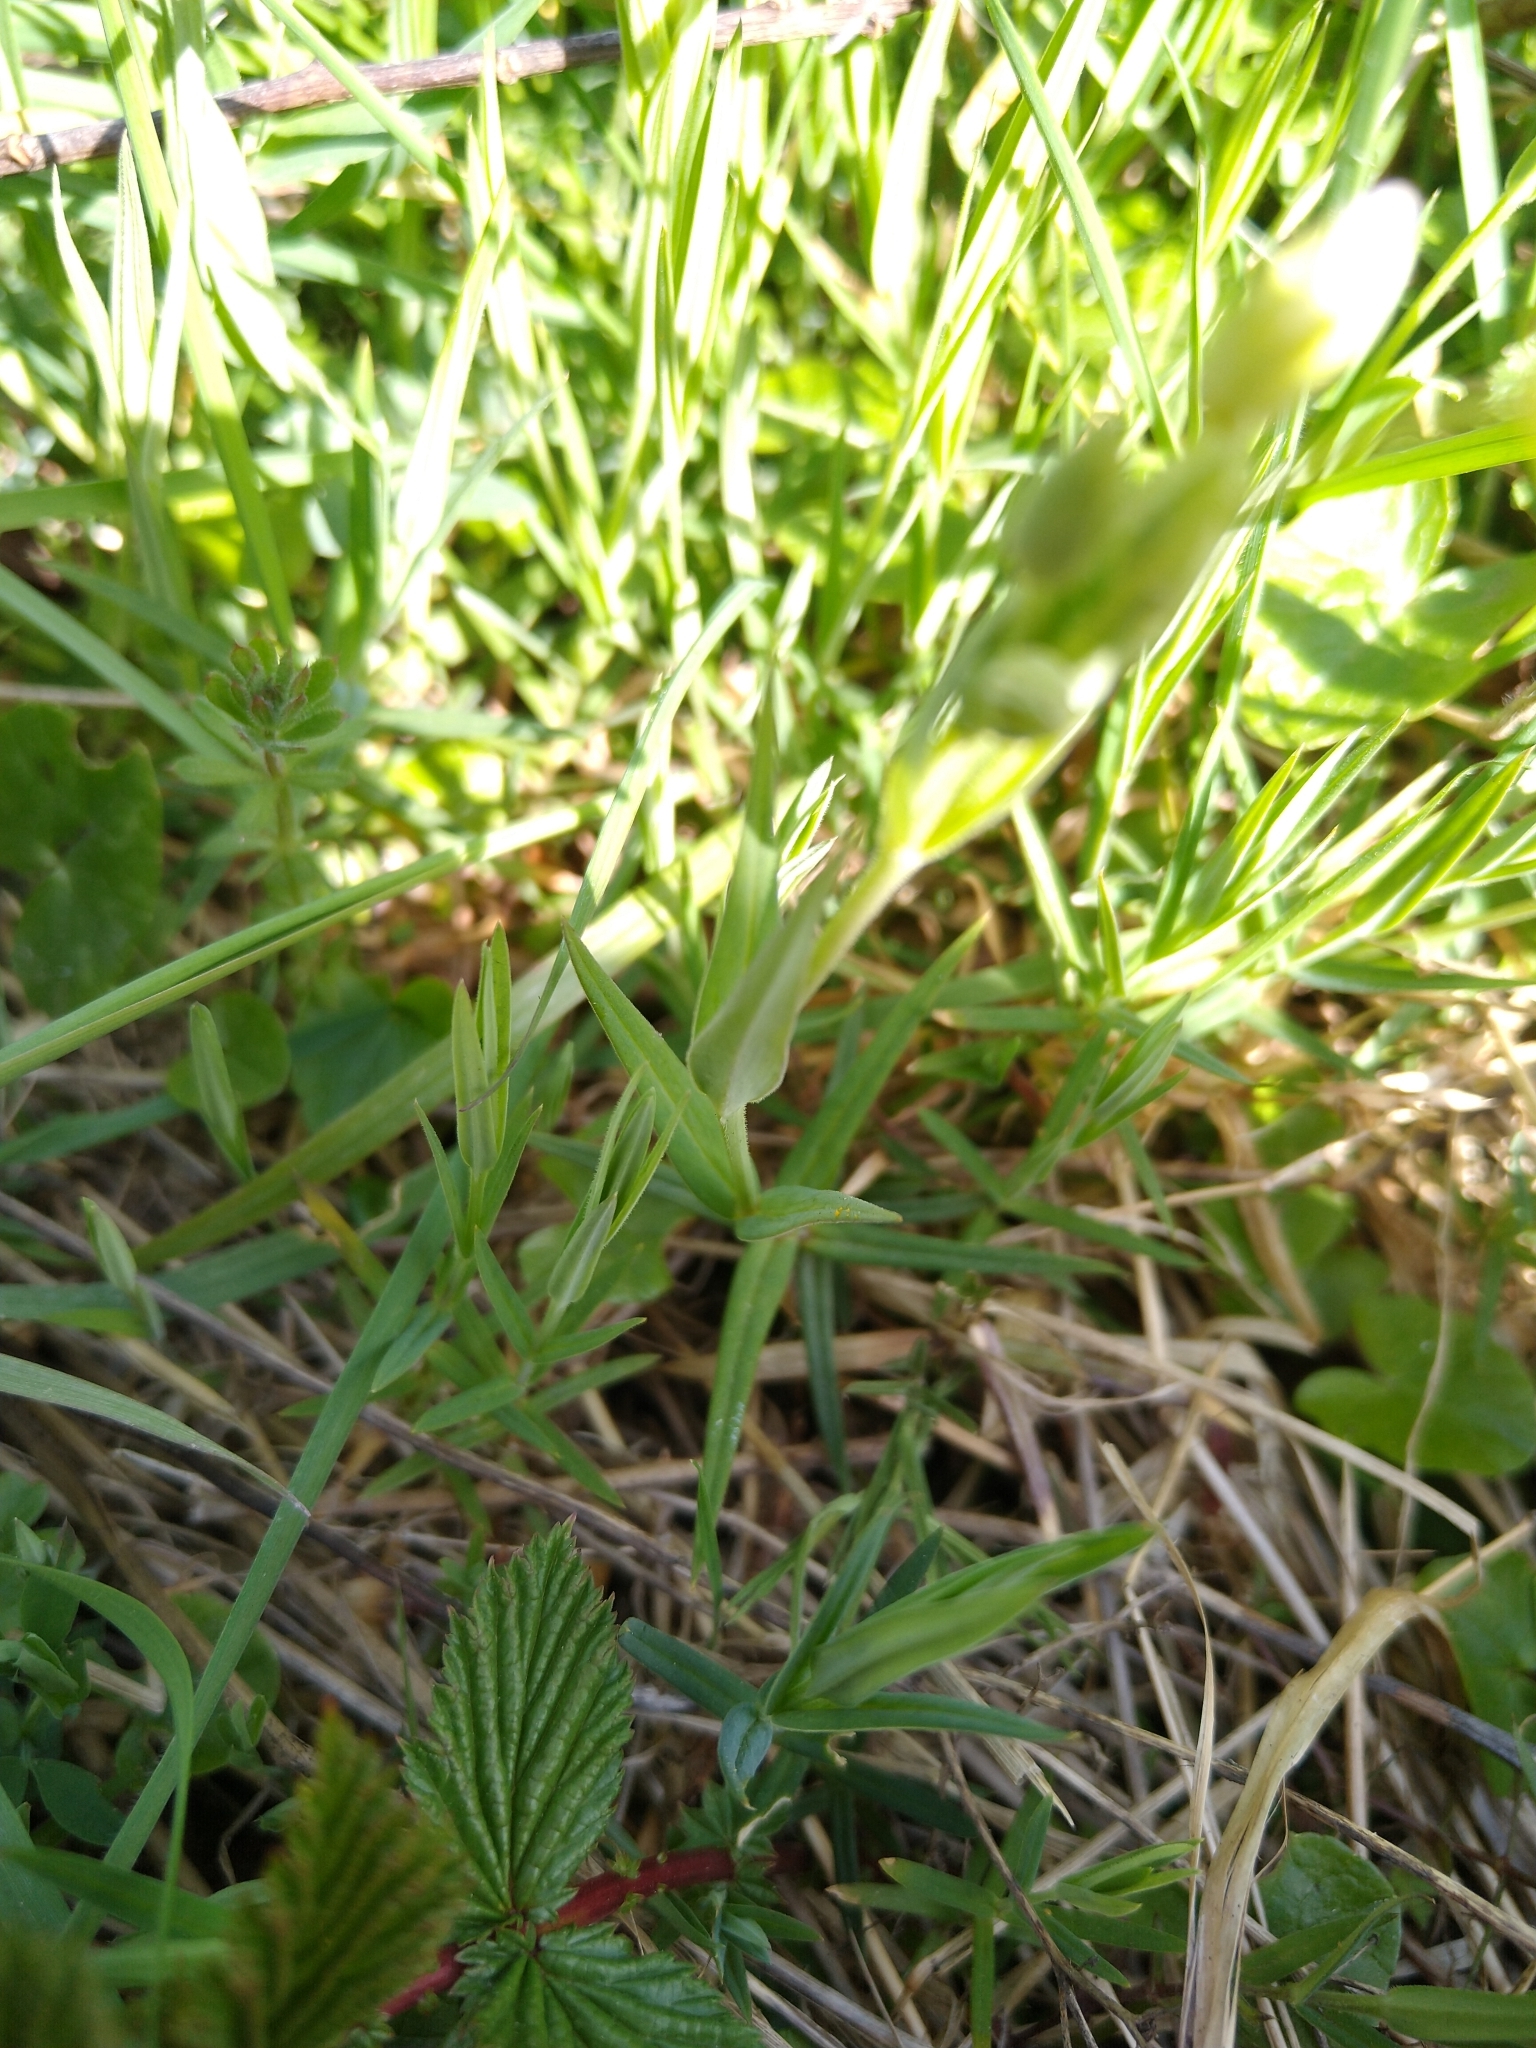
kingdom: Plantae
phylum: Tracheophyta
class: Magnoliopsida
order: Caryophyllales
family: Caryophyllaceae
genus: Rabelera
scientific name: Rabelera holostea
